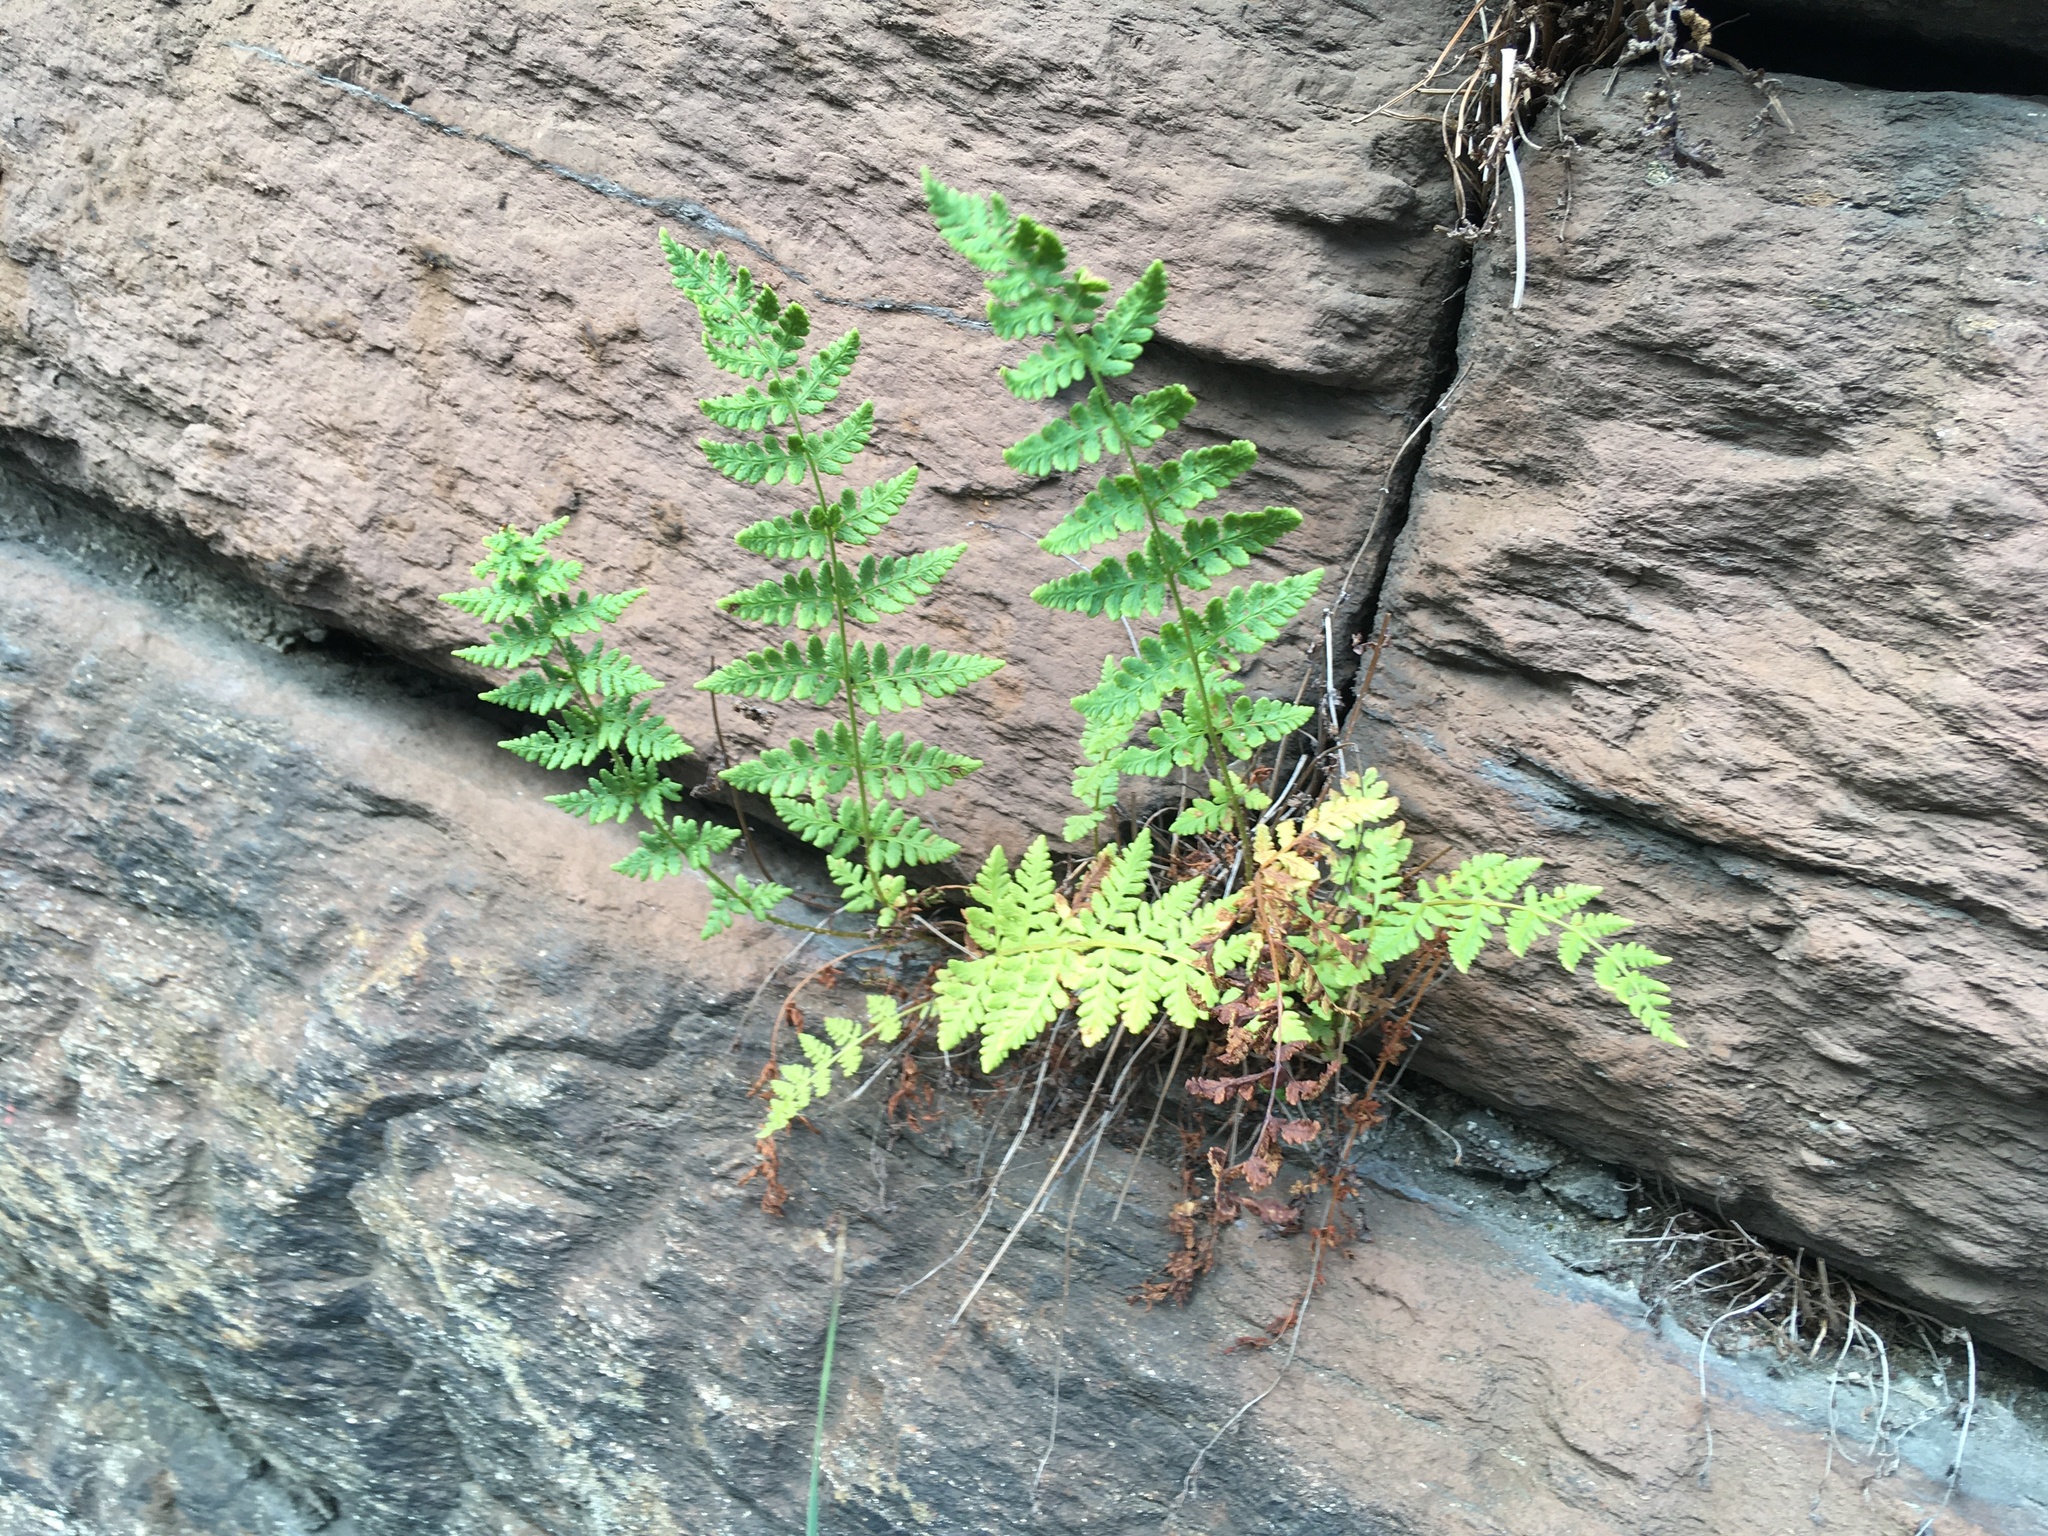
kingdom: Plantae
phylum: Tracheophyta
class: Polypodiopsida
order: Polypodiales
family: Woodsiaceae
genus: Physematium
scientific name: Physematium obtusum
